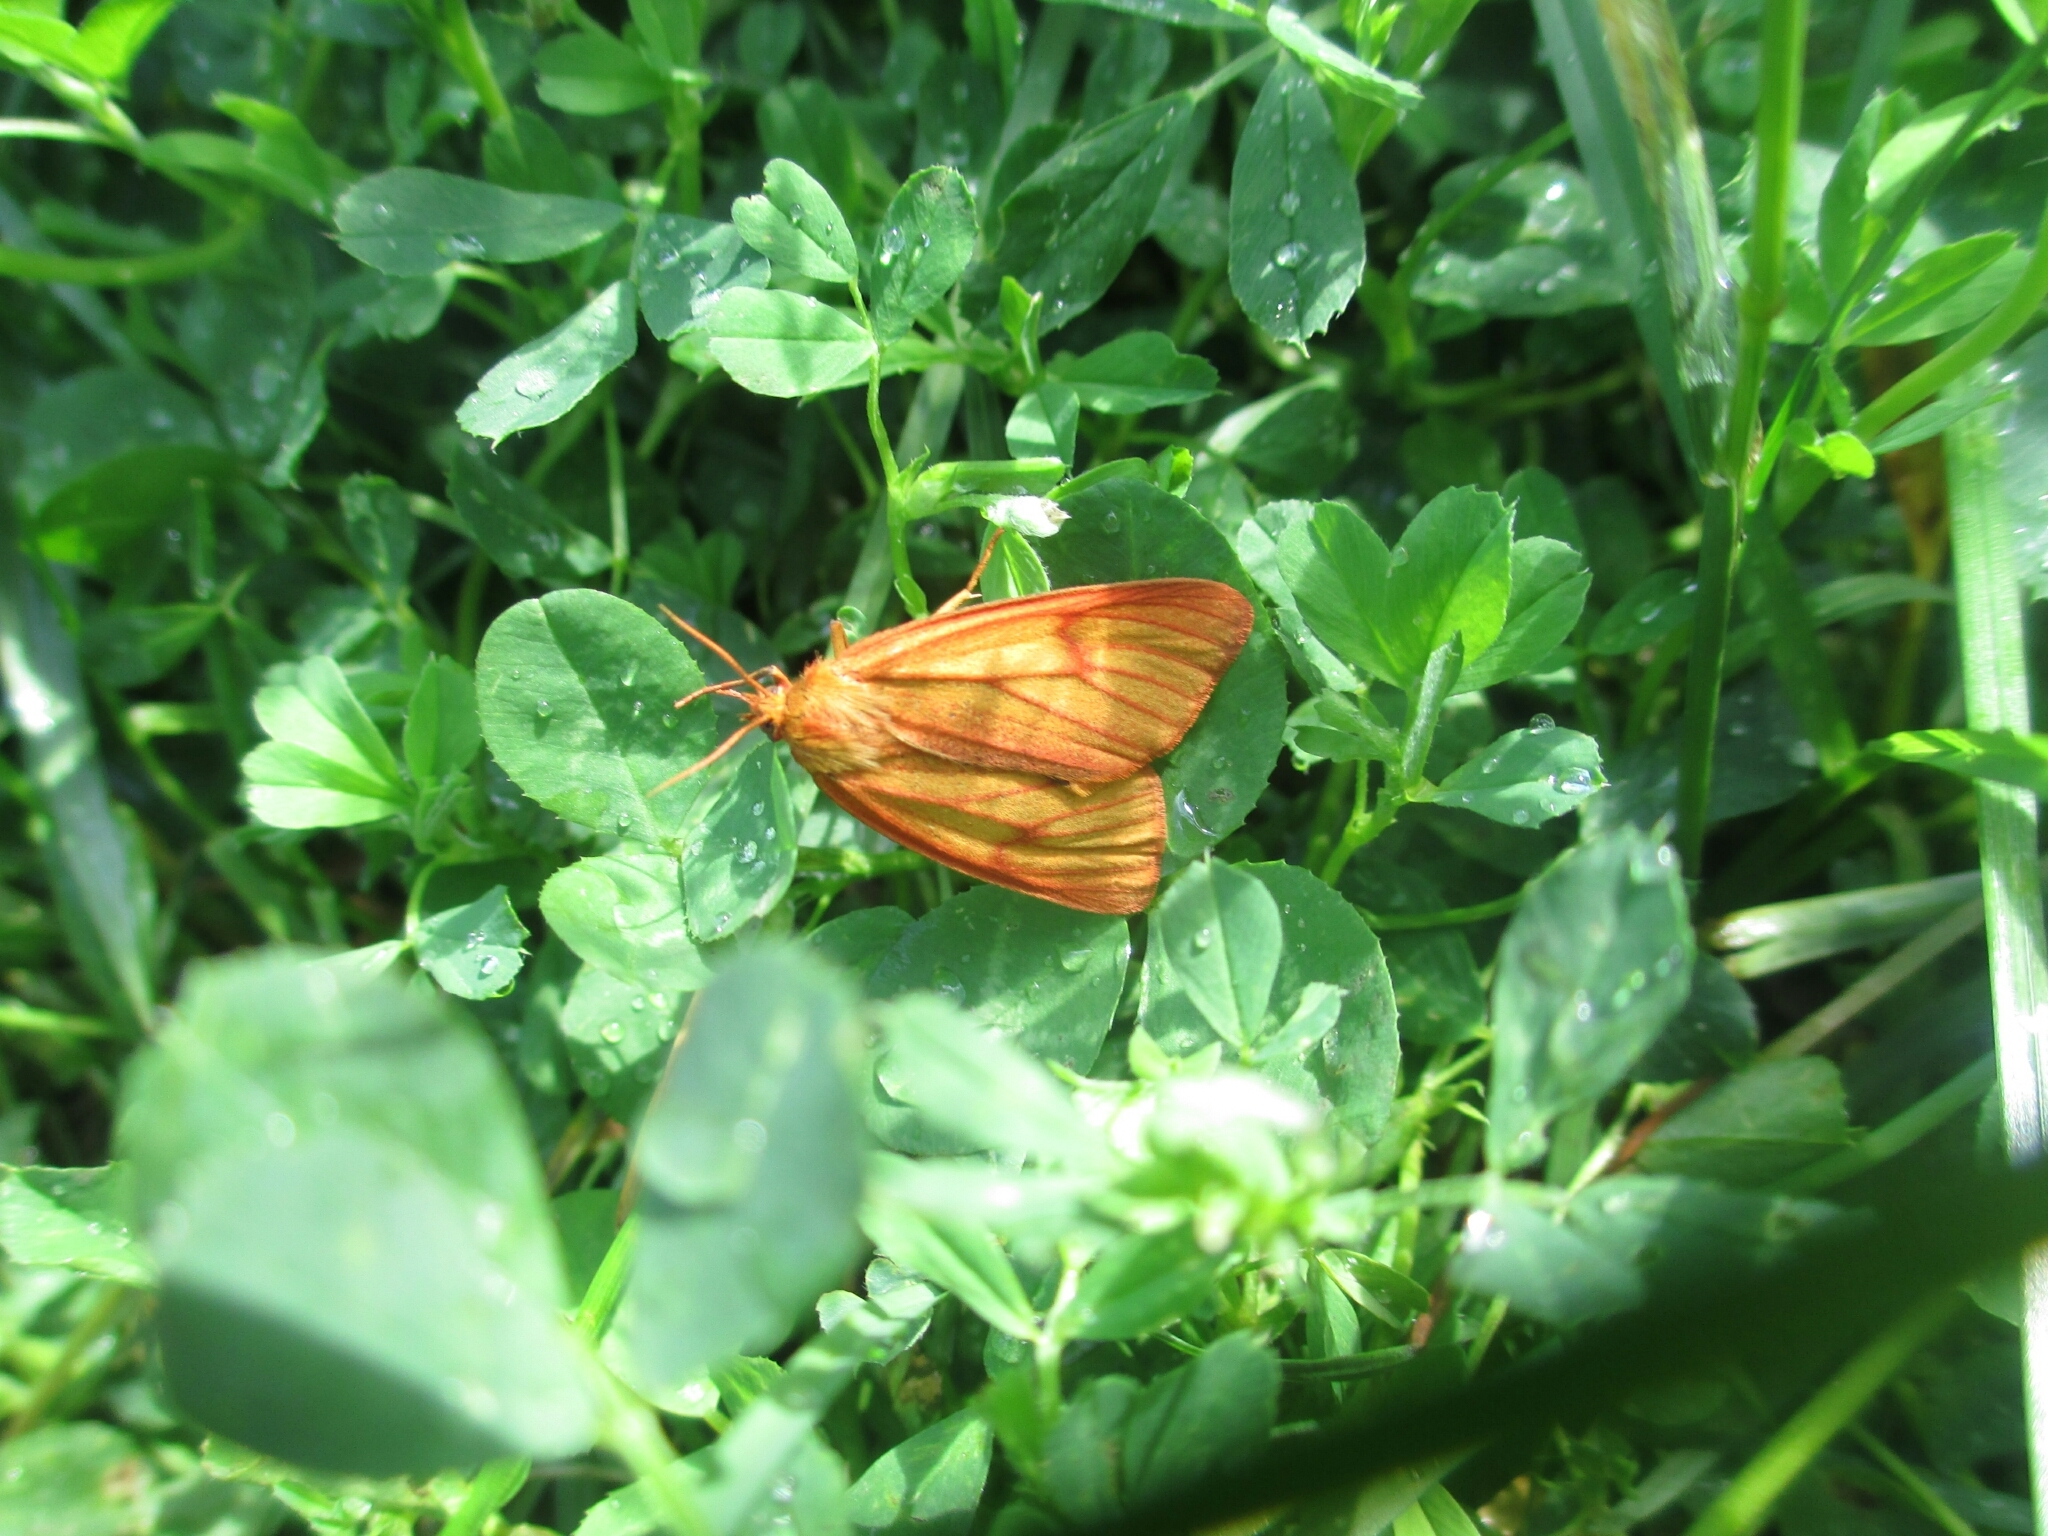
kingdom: Animalia
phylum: Arthropoda
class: Insecta
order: Lepidoptera
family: Erebidae
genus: Diacrisia
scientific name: Diacrisia sannio
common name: Clouded buff
